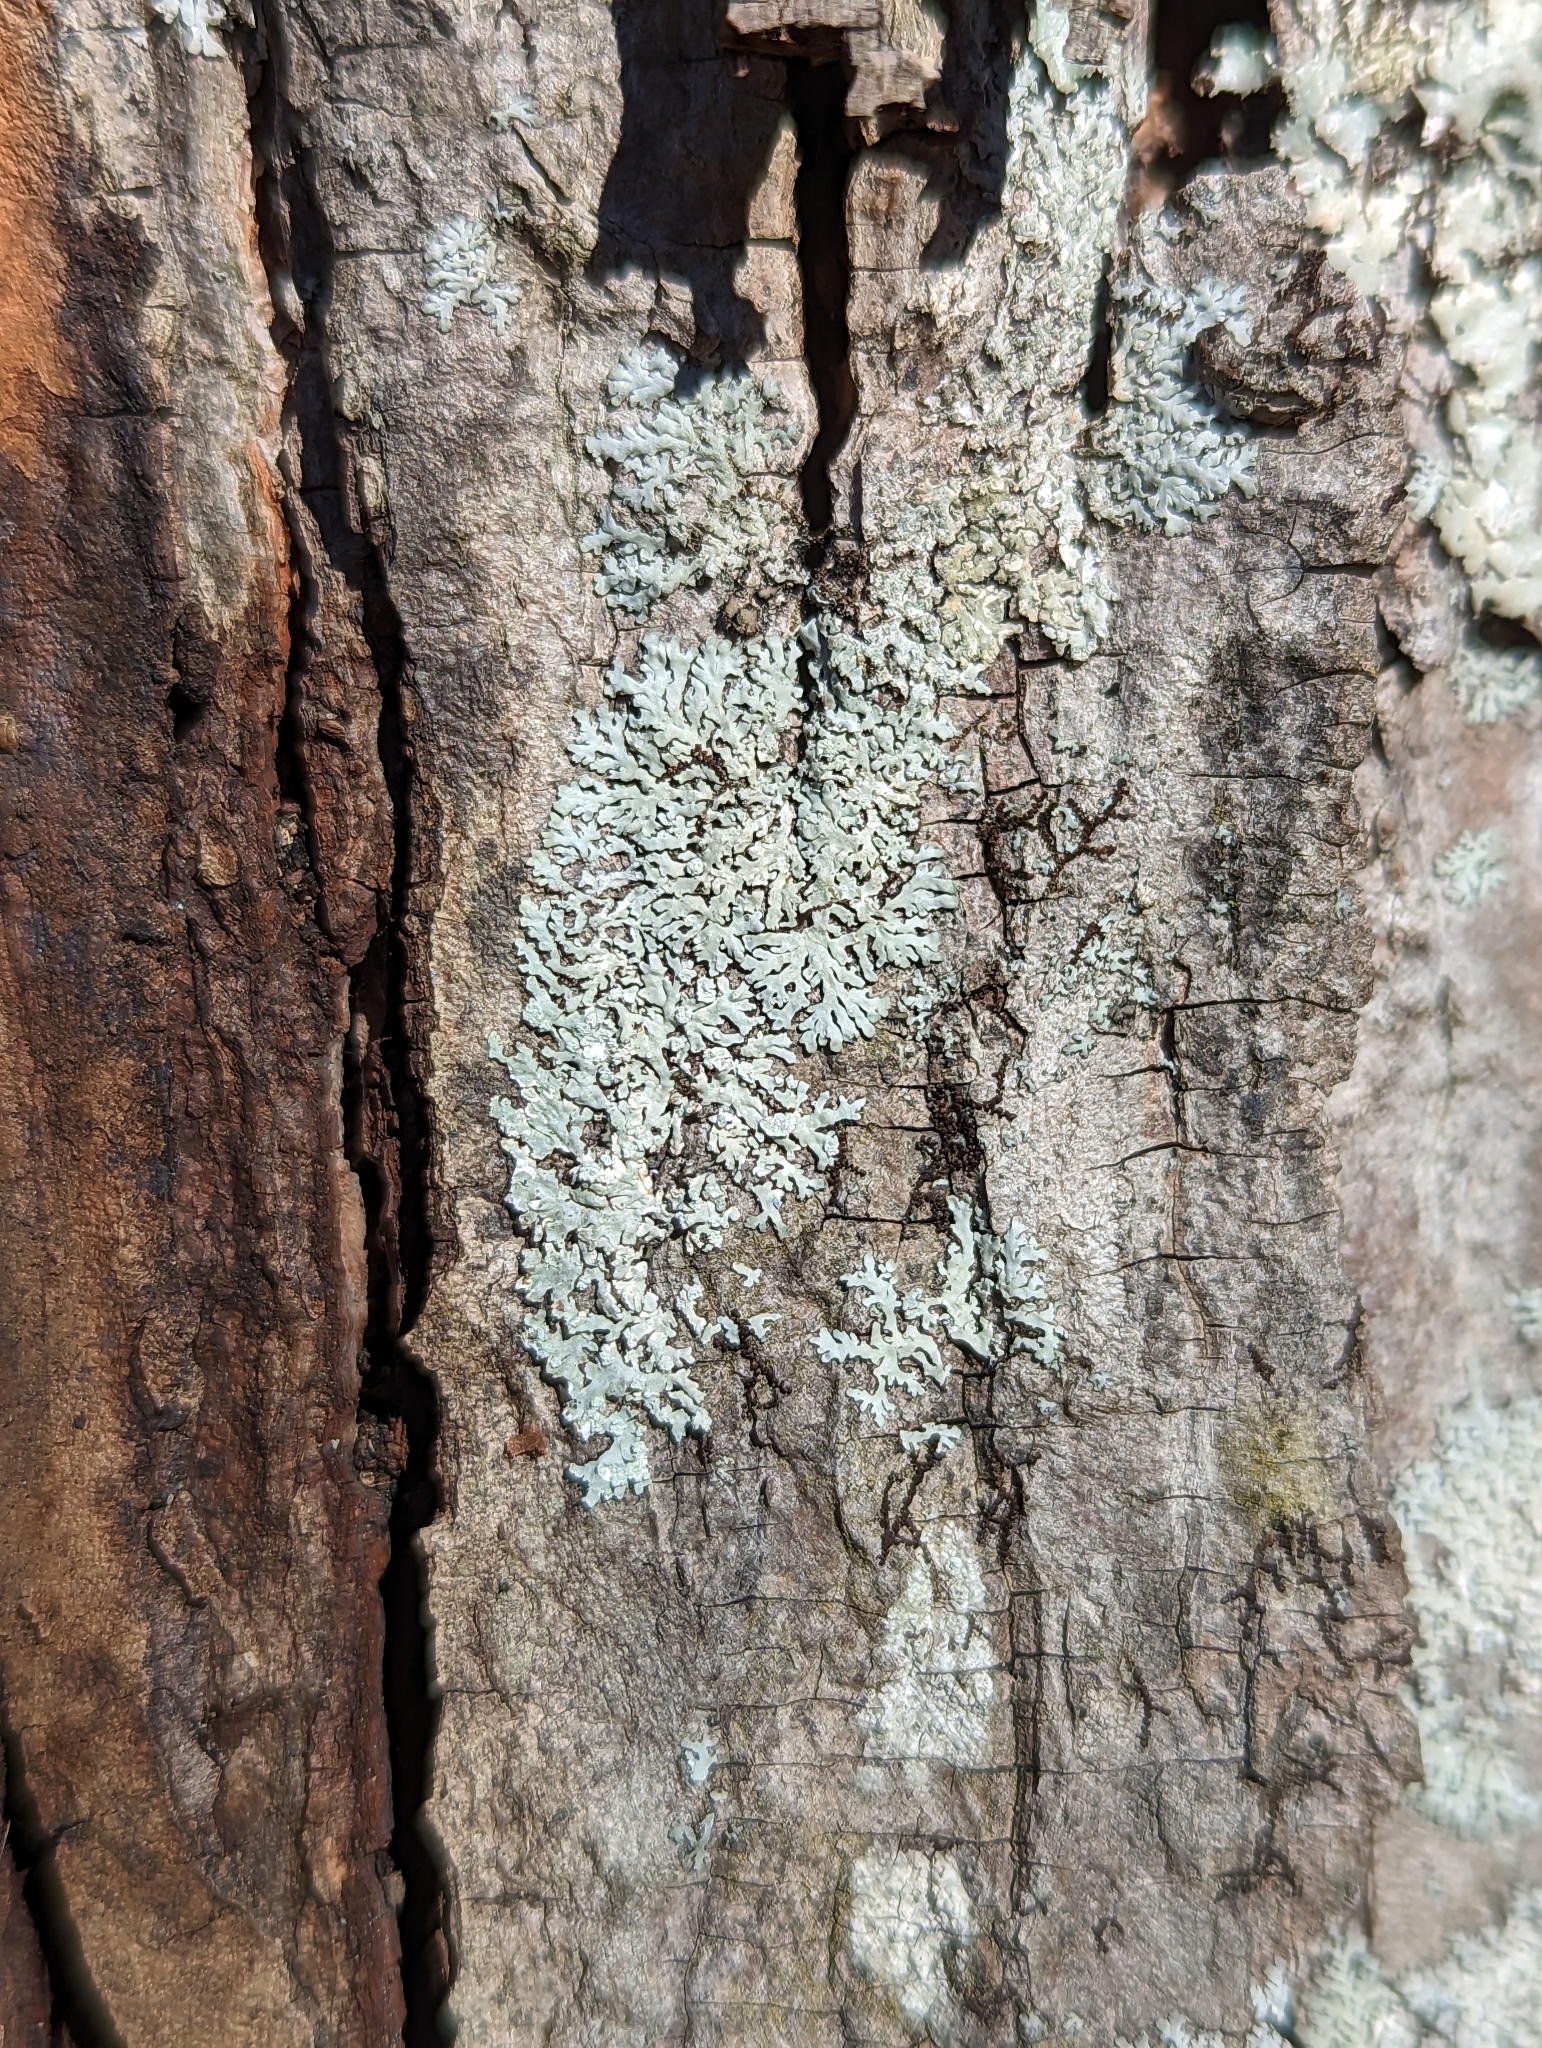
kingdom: Fungi
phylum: Ascomycota
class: Lecanoromycetes
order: Caliciales
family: Physciaceae
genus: Physcia
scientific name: Physcia americana
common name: American rosette lichen
